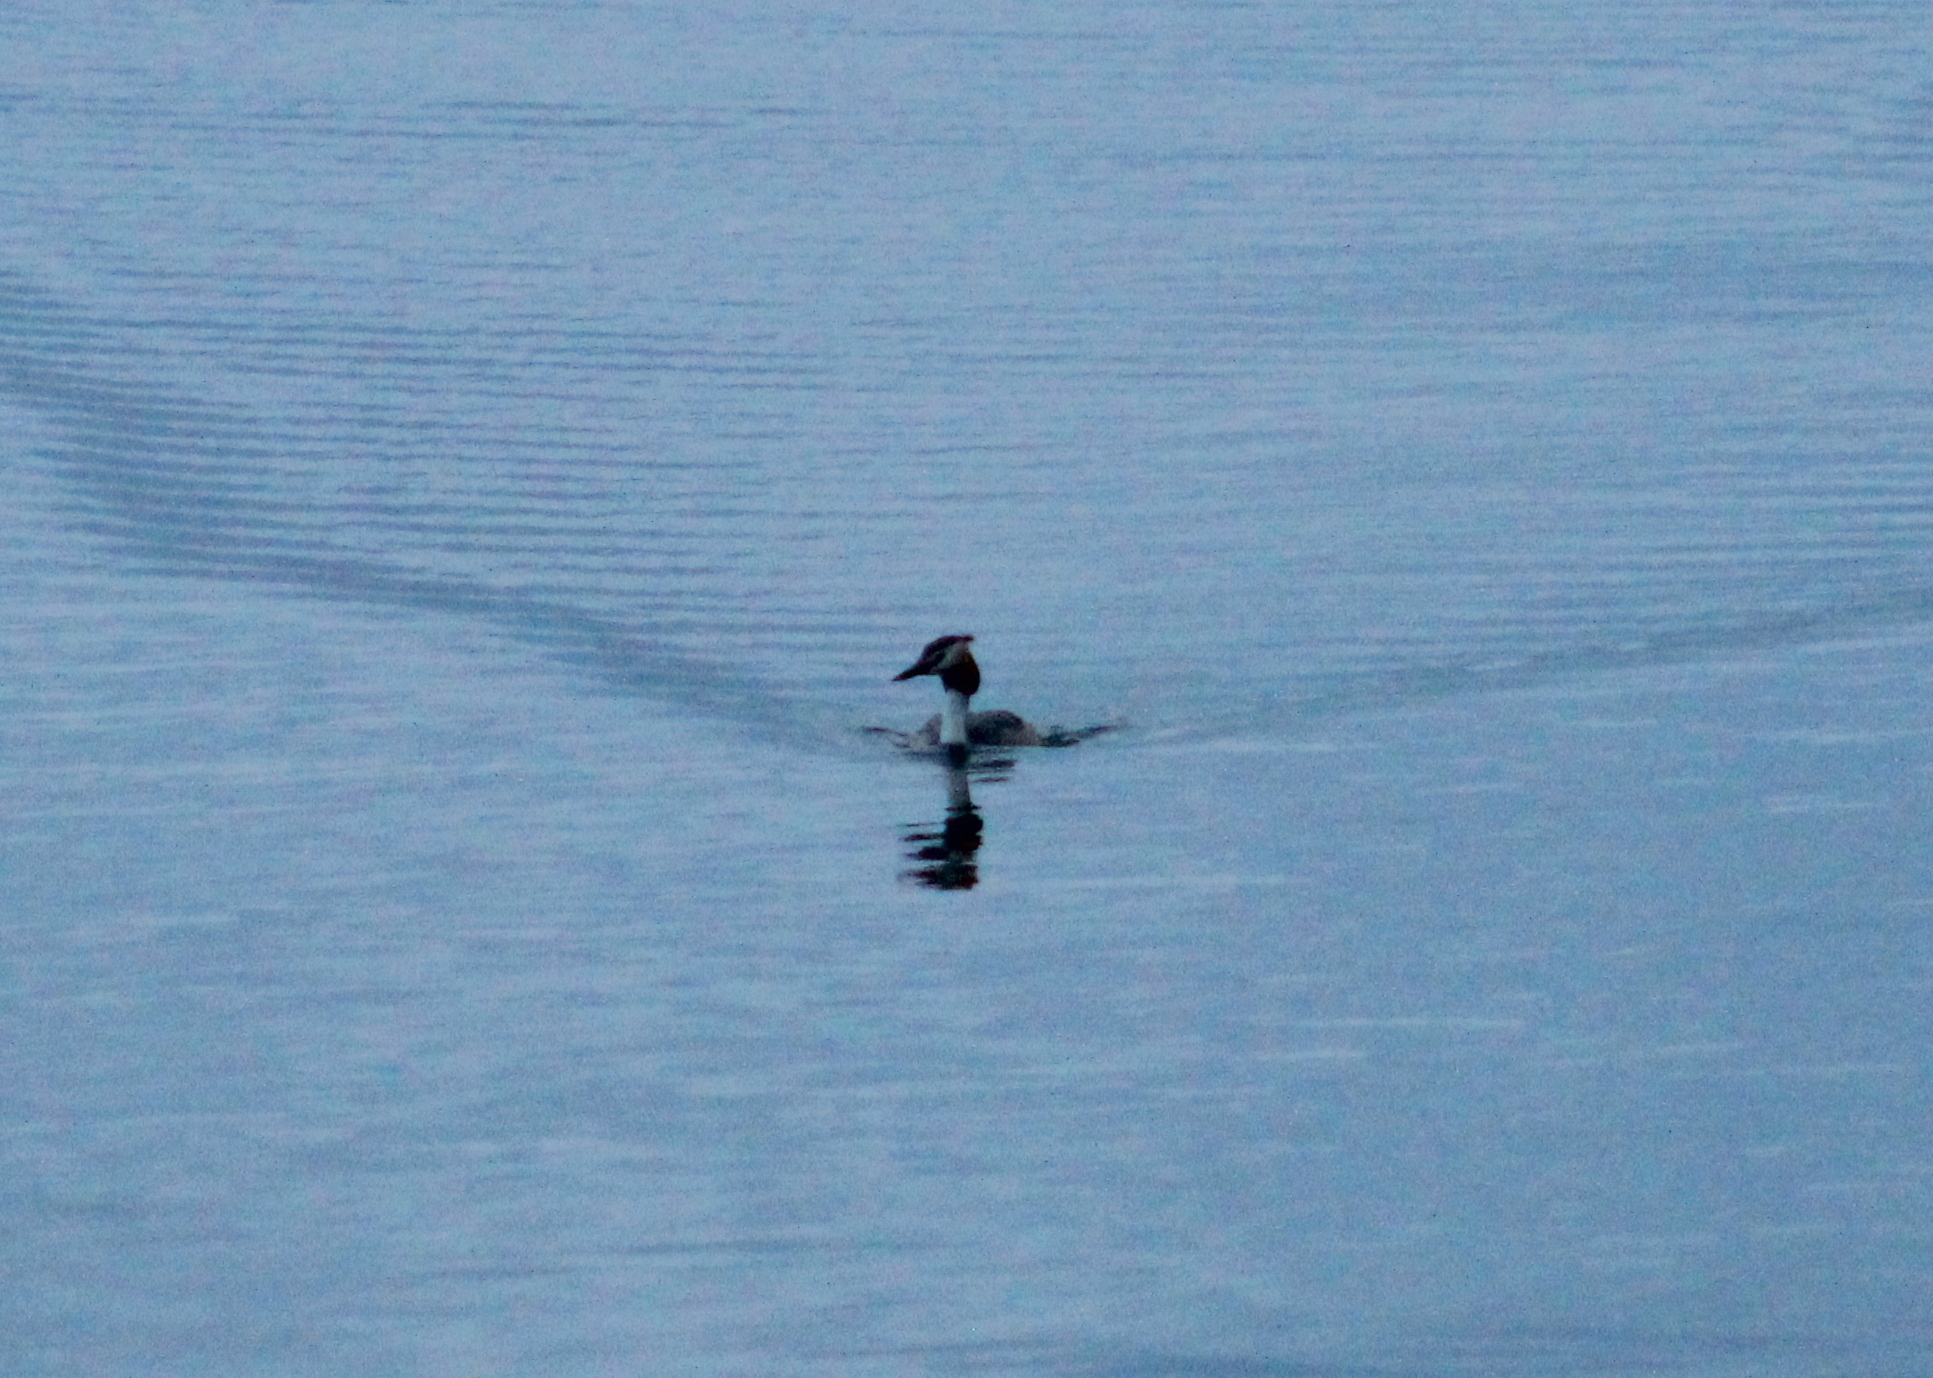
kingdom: Animalia
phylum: Chordata
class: Aves
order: Podicipediformes
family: Podicipedidae
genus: Podiceps
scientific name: Podiceps cristatus
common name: Great crested grebe
